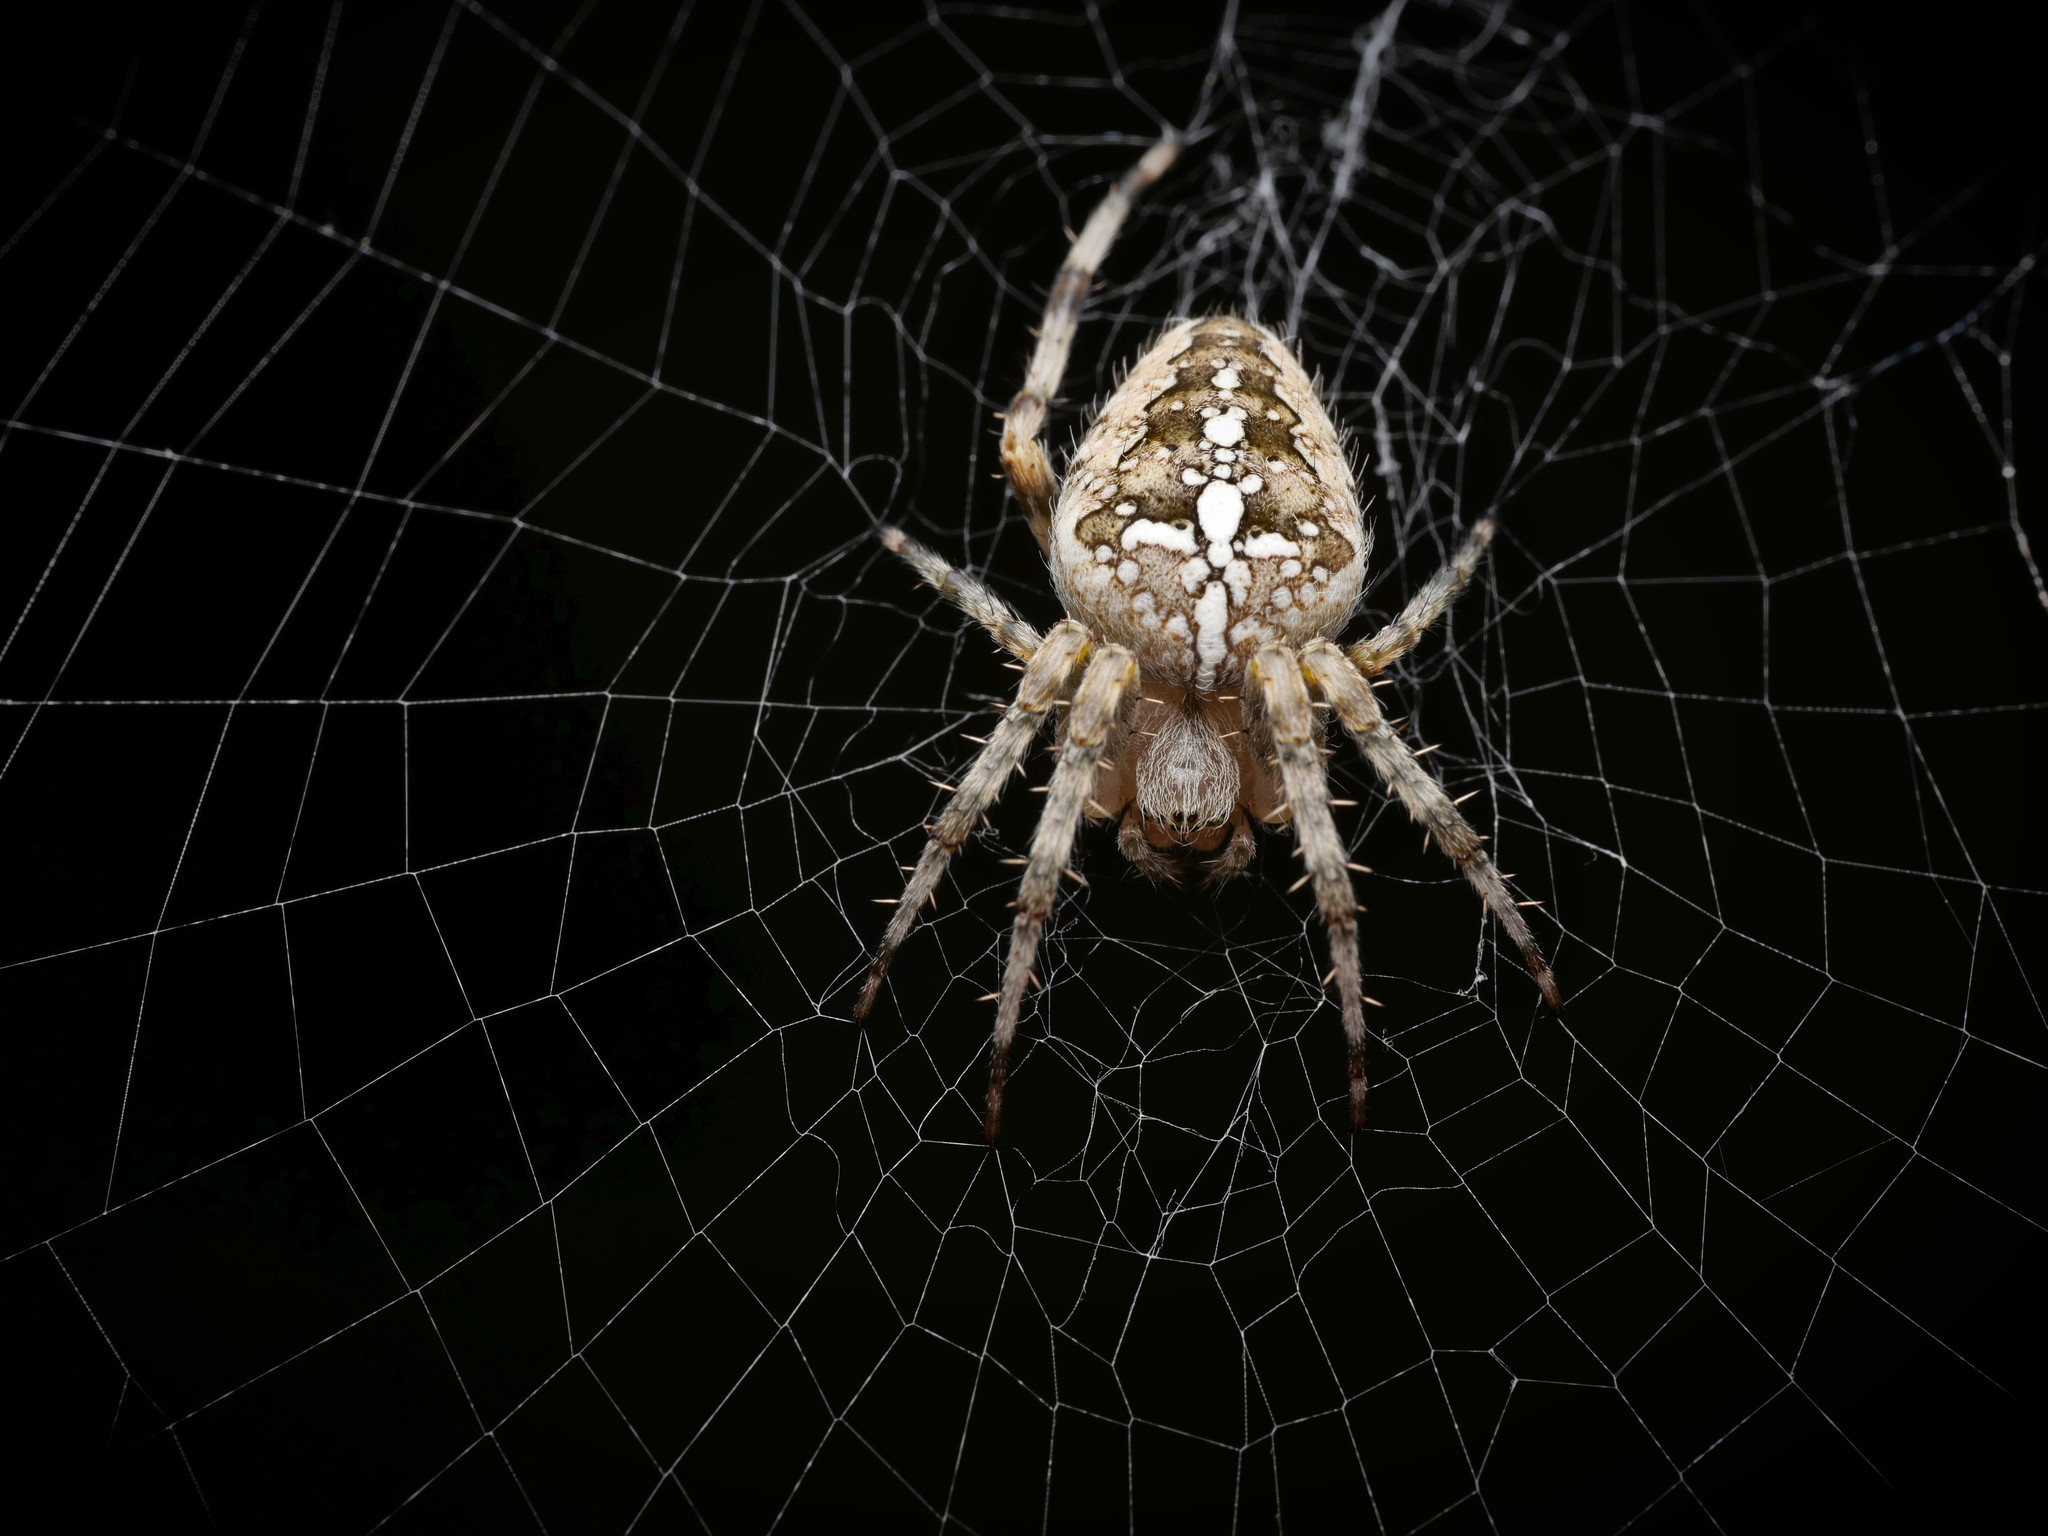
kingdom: Animalia
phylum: Arthropoda
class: Arachnida
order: Araneae
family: Araneidae
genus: Araneus
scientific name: Araneus diadematus
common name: Cross orbweaver
